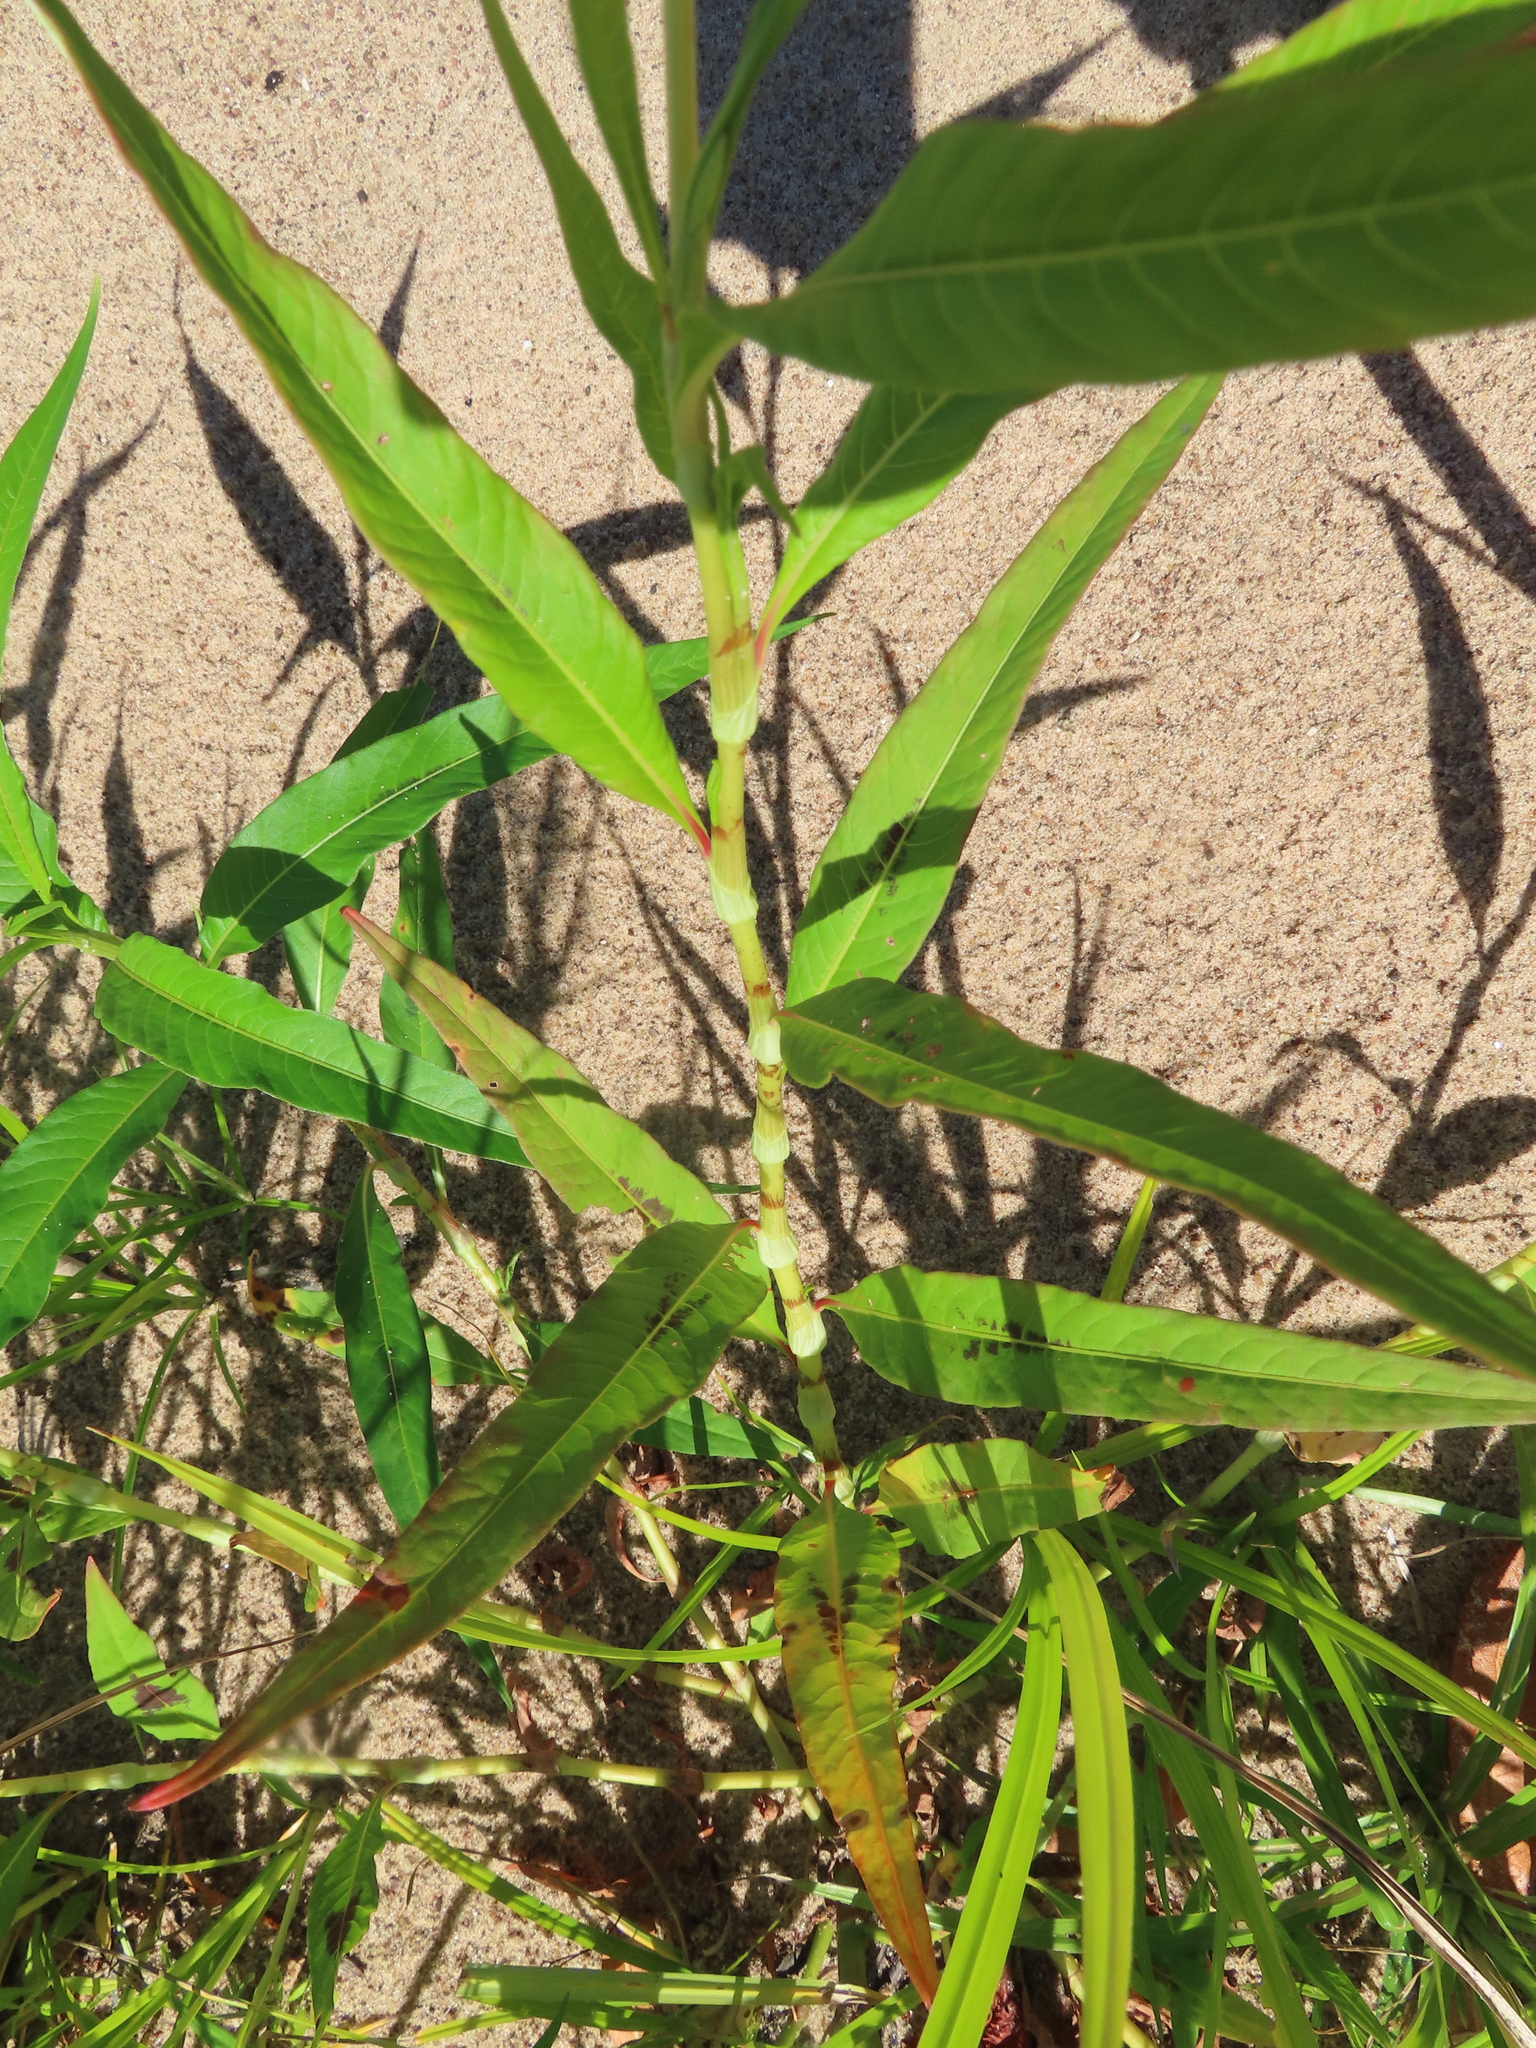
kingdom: Plantae
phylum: Tracheophyta
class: Magnoliopsida
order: Caryophyllales
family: Polygonaceae
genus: Persicaria
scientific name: Persicaria lapathifolia
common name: Curlytop knotweed
